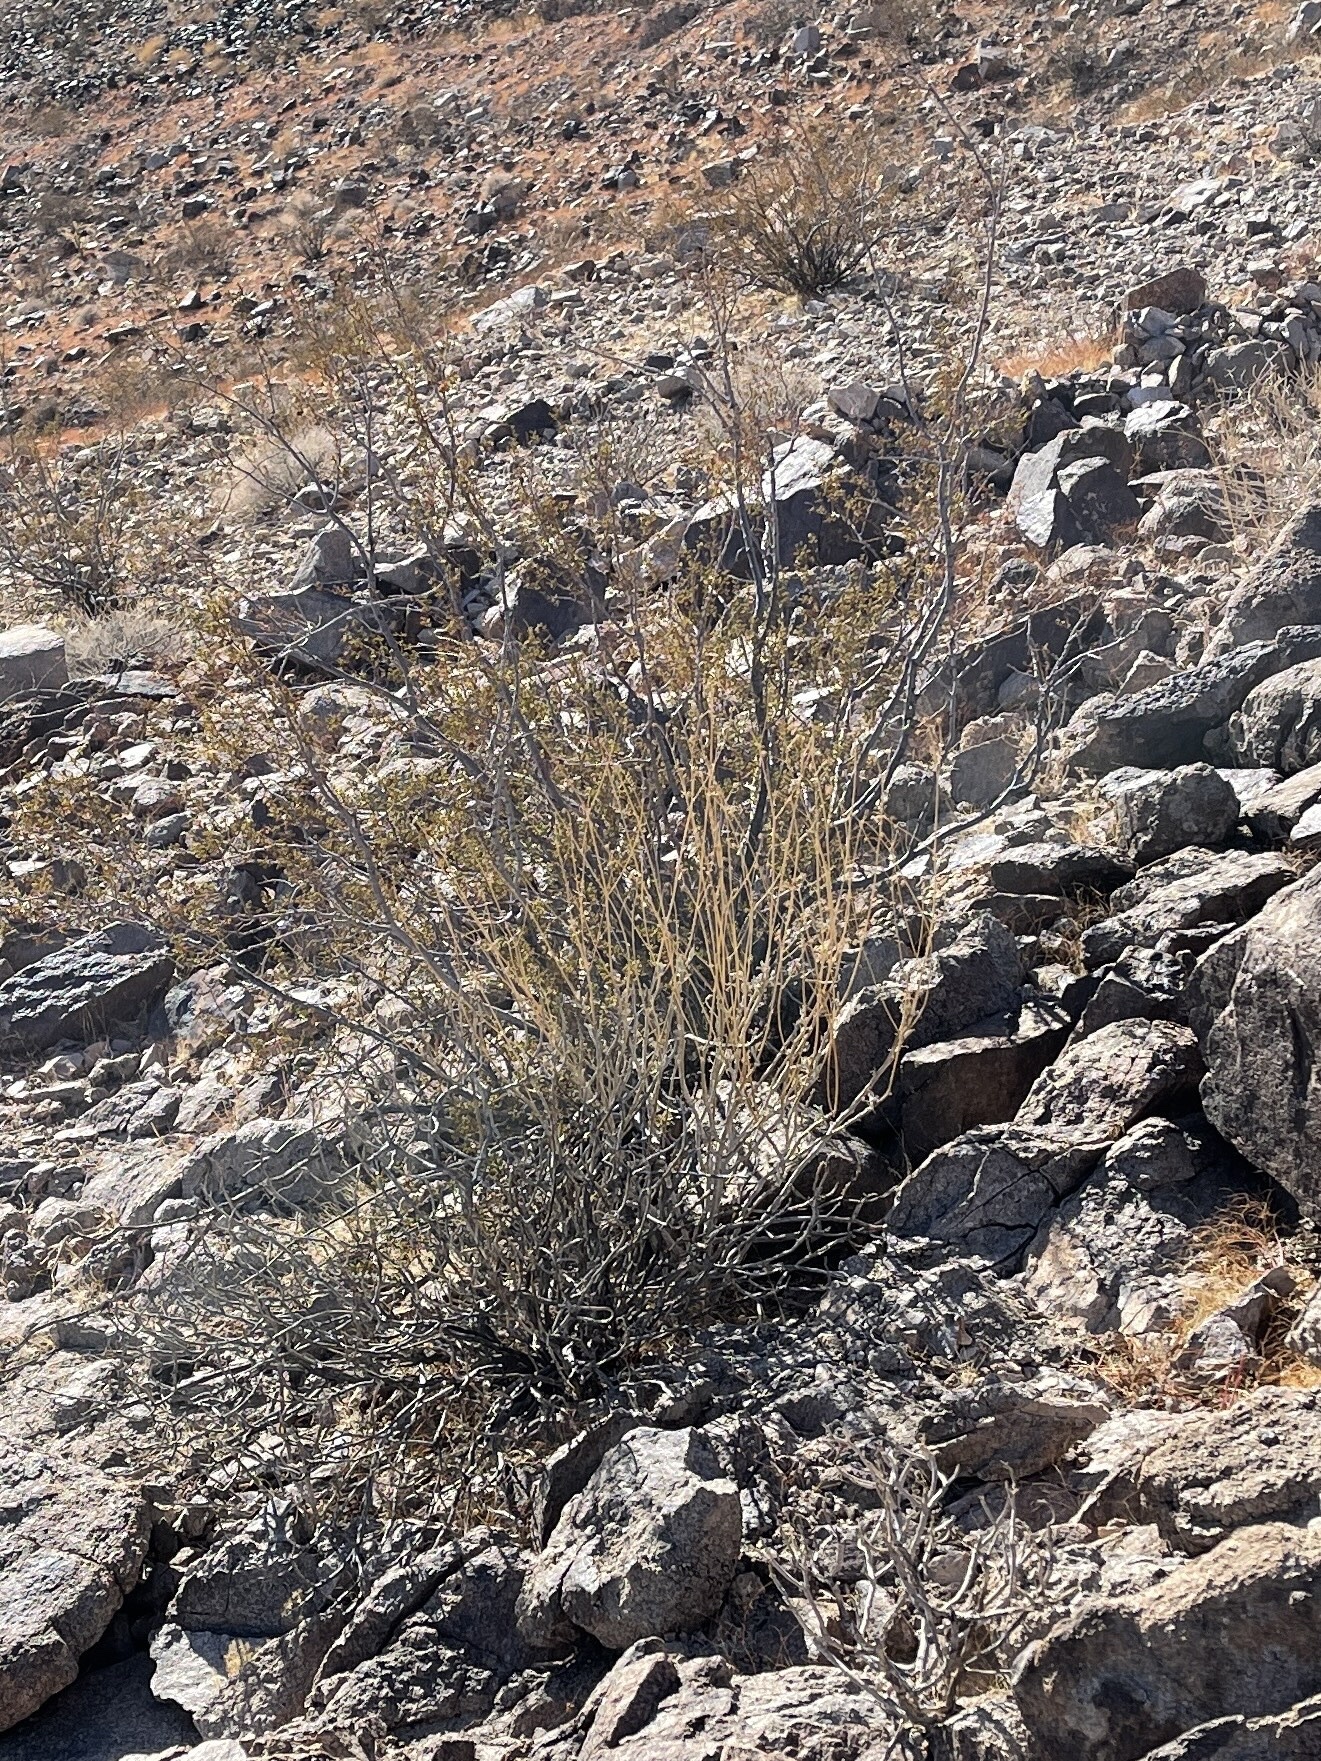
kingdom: Plantae
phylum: Tracheophyta
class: Magnoliopsida
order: Zygophyllales
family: Zygophyllaceae
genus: Larrea
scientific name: Larrea tridentata
